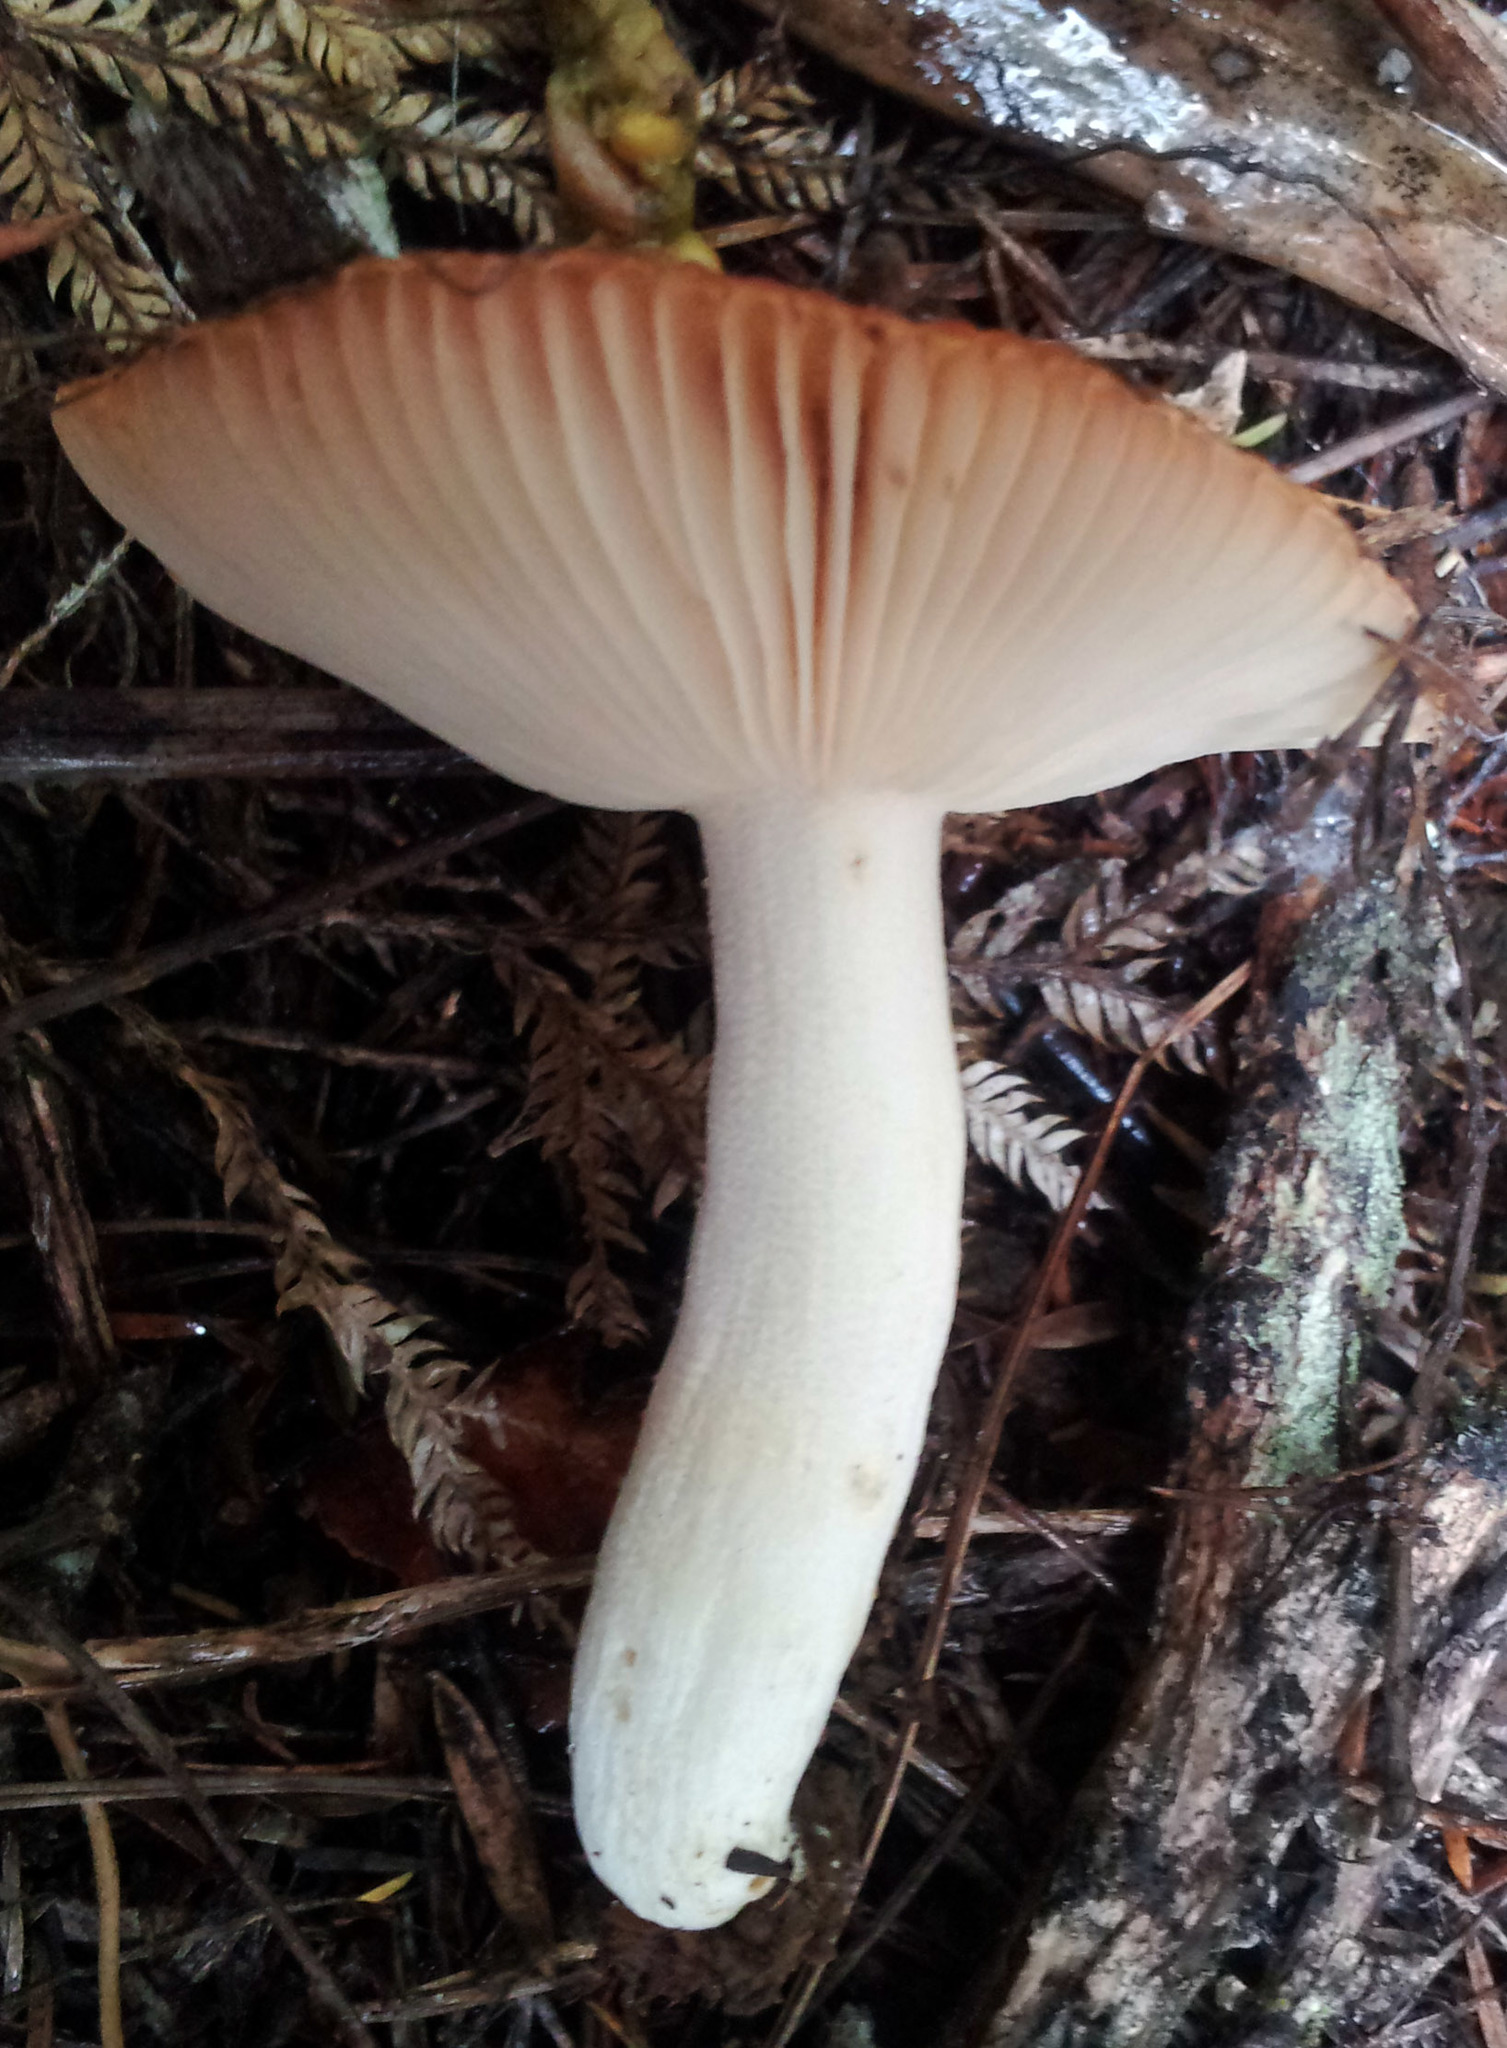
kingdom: Fungi
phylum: Basidiomycota
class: Agaricomycetes
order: Russulales
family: Russulaceae
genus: Russula
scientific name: Russula acrolamellata
